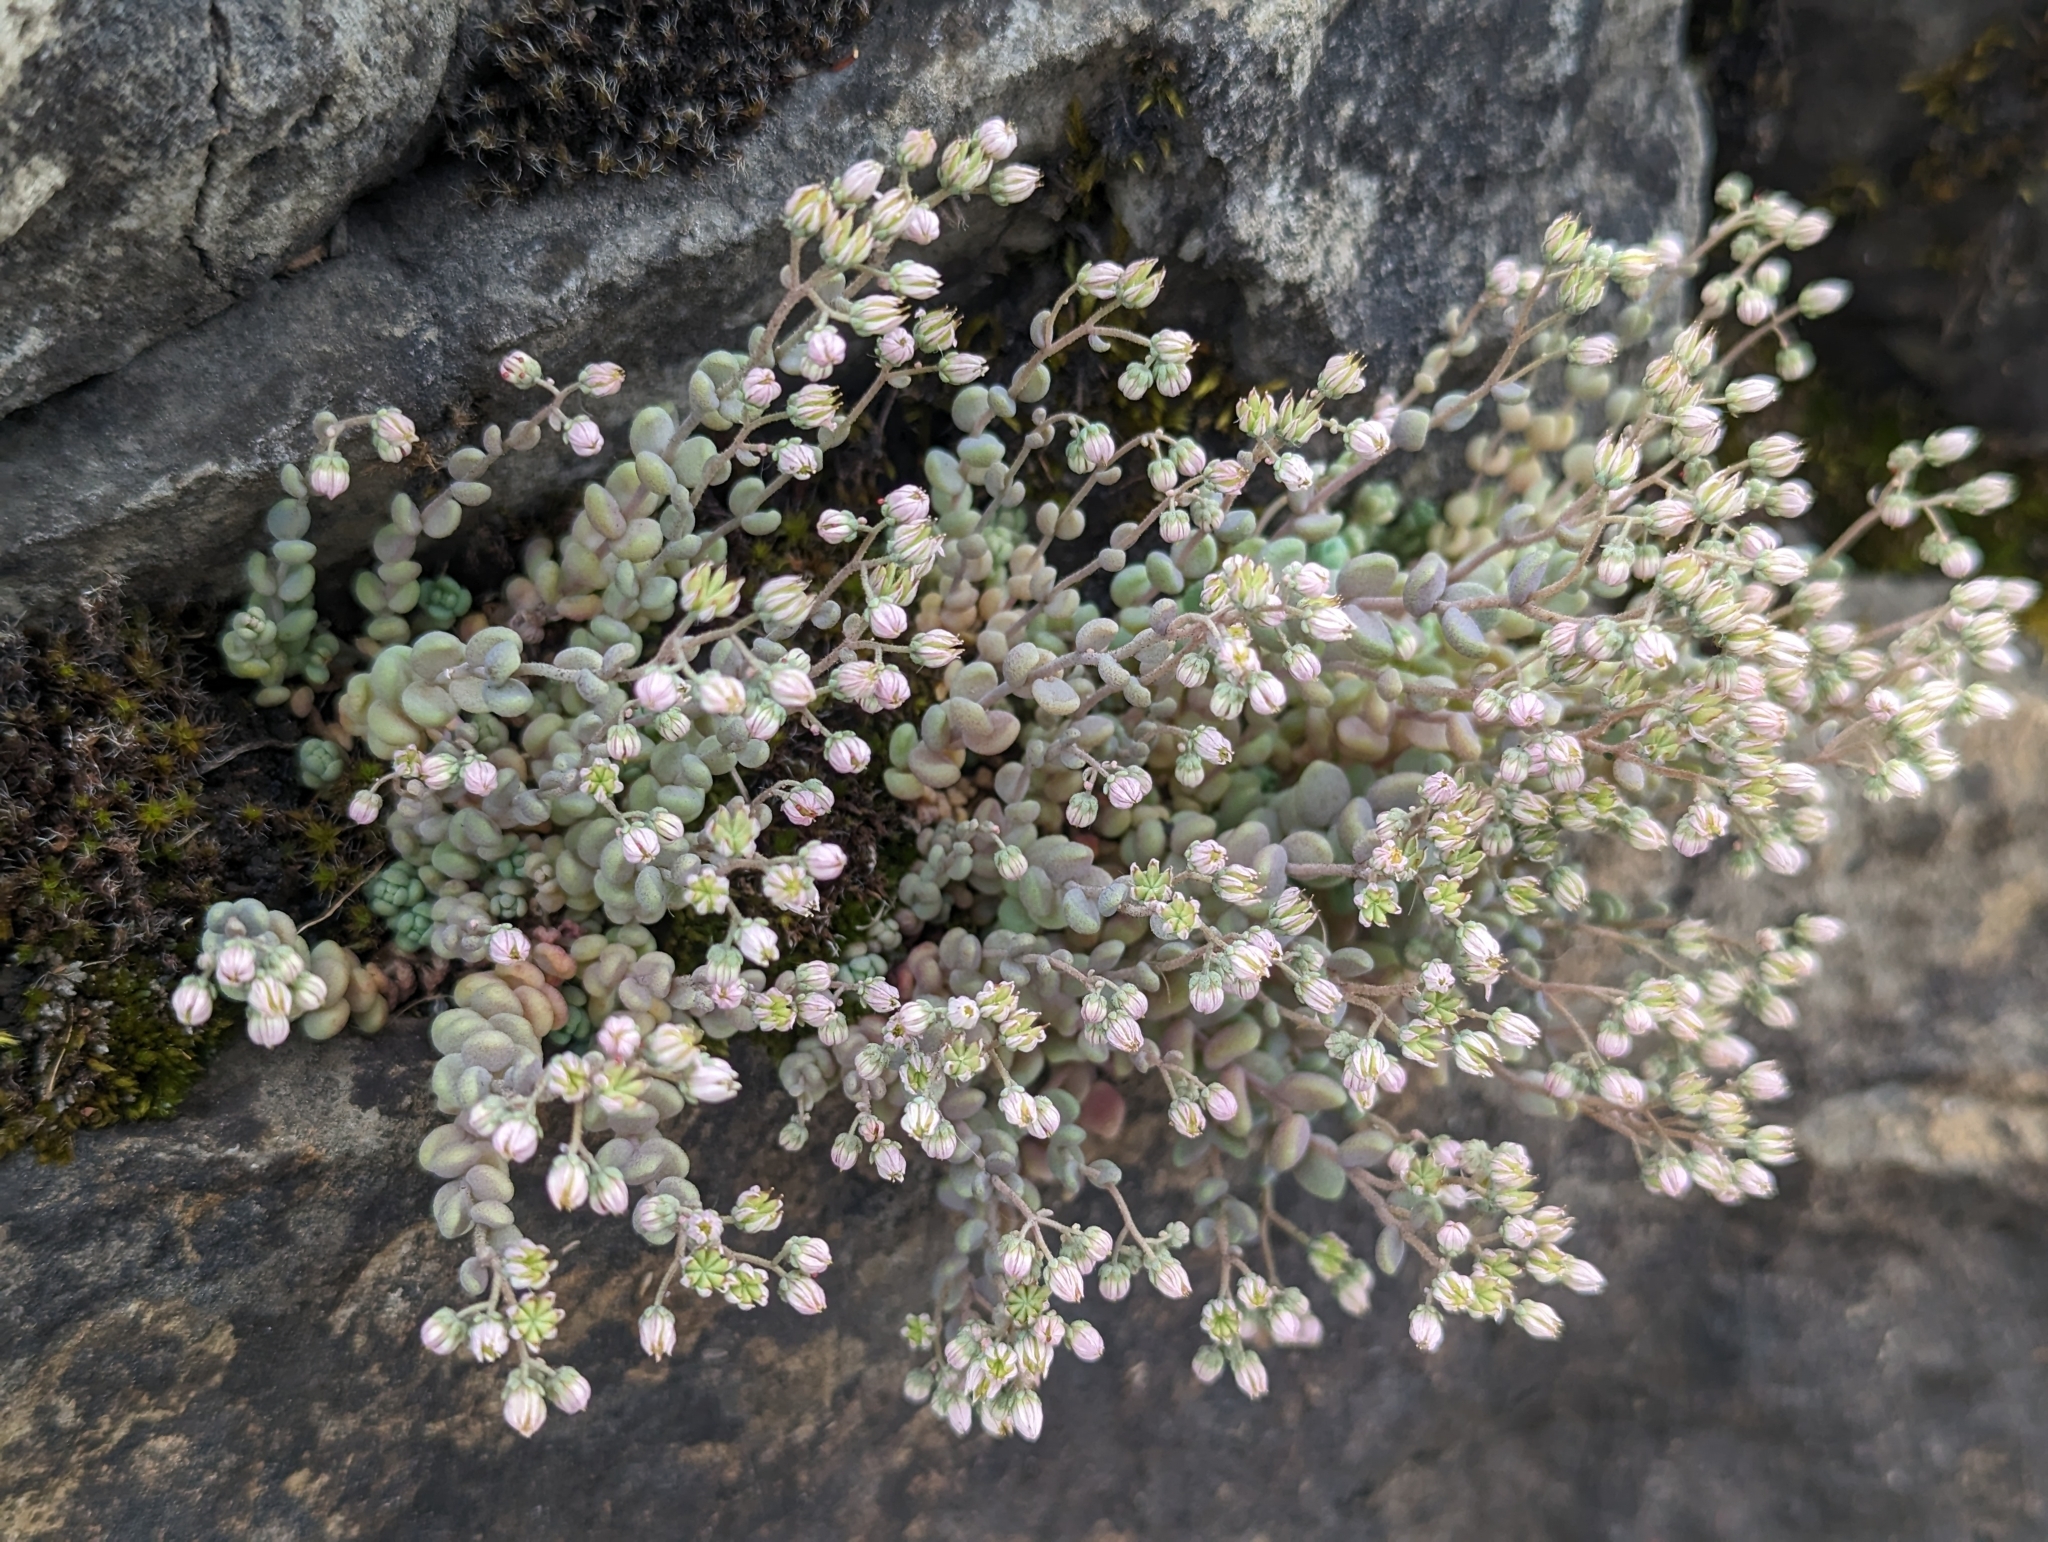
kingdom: Plantae
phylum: Tracheophyta
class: Magnoliopsida
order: Saxifragales
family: Crassulaceae
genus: Sedum
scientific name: Sedum dasyphyllum
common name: Thick-leaf stonecrop
